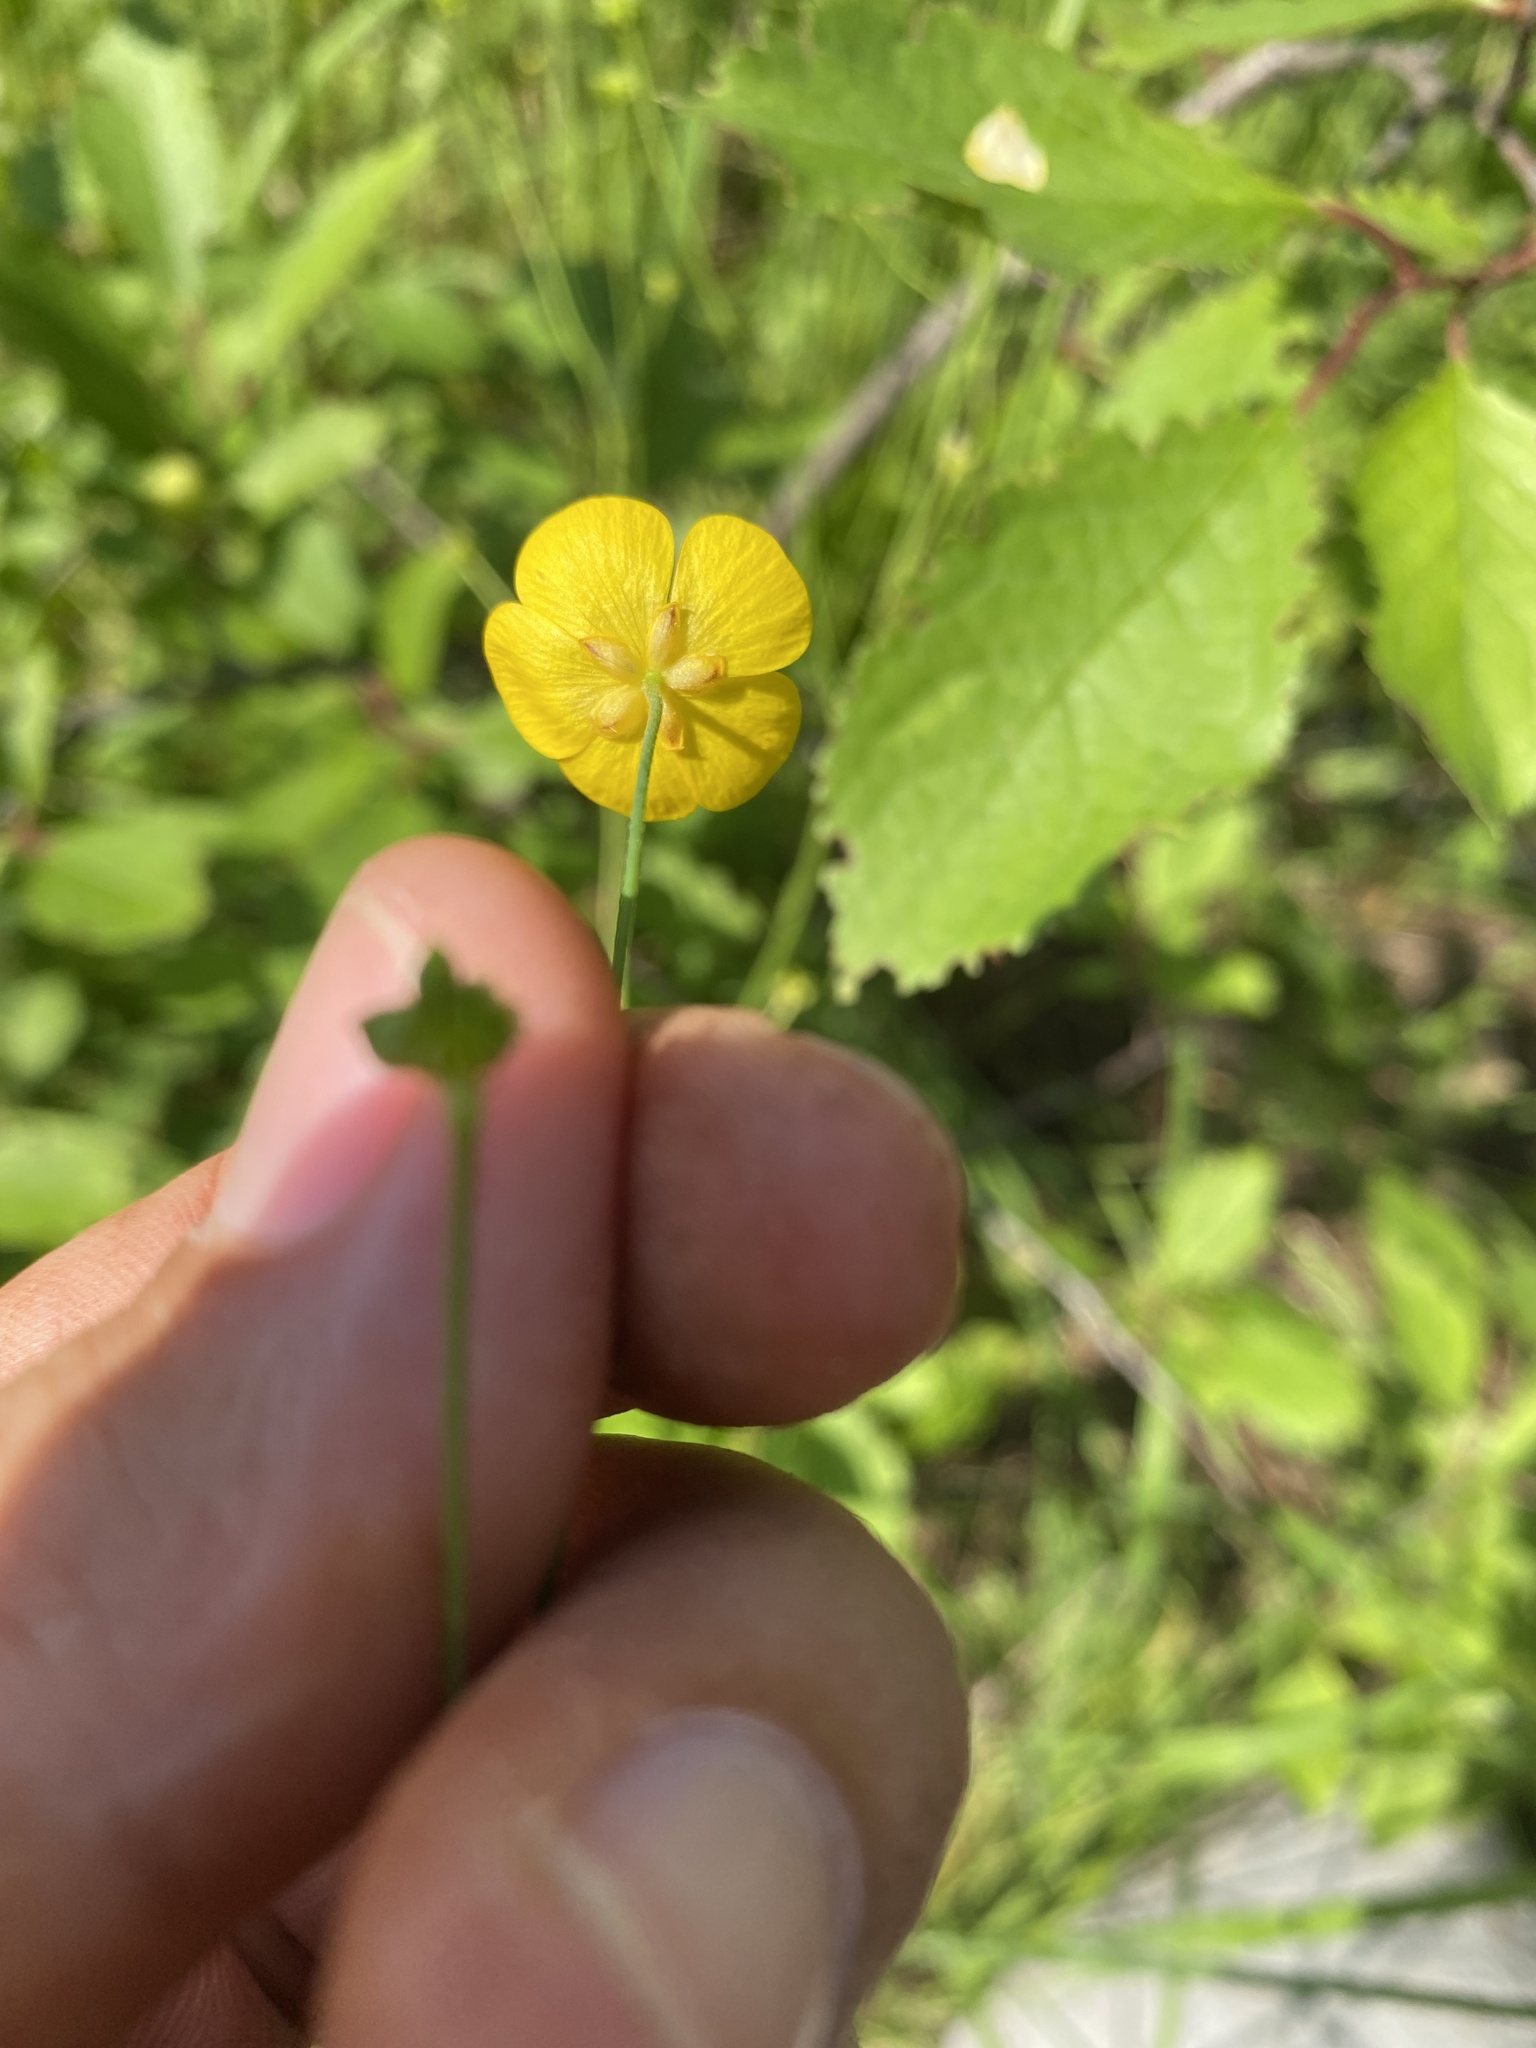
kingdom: Plantae
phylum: Tracheophyta
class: Magnoliopsida
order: Ranunculales
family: Ranunculaceae
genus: Ranunculus
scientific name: Ranunculus acris
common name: Meadow buttercup
